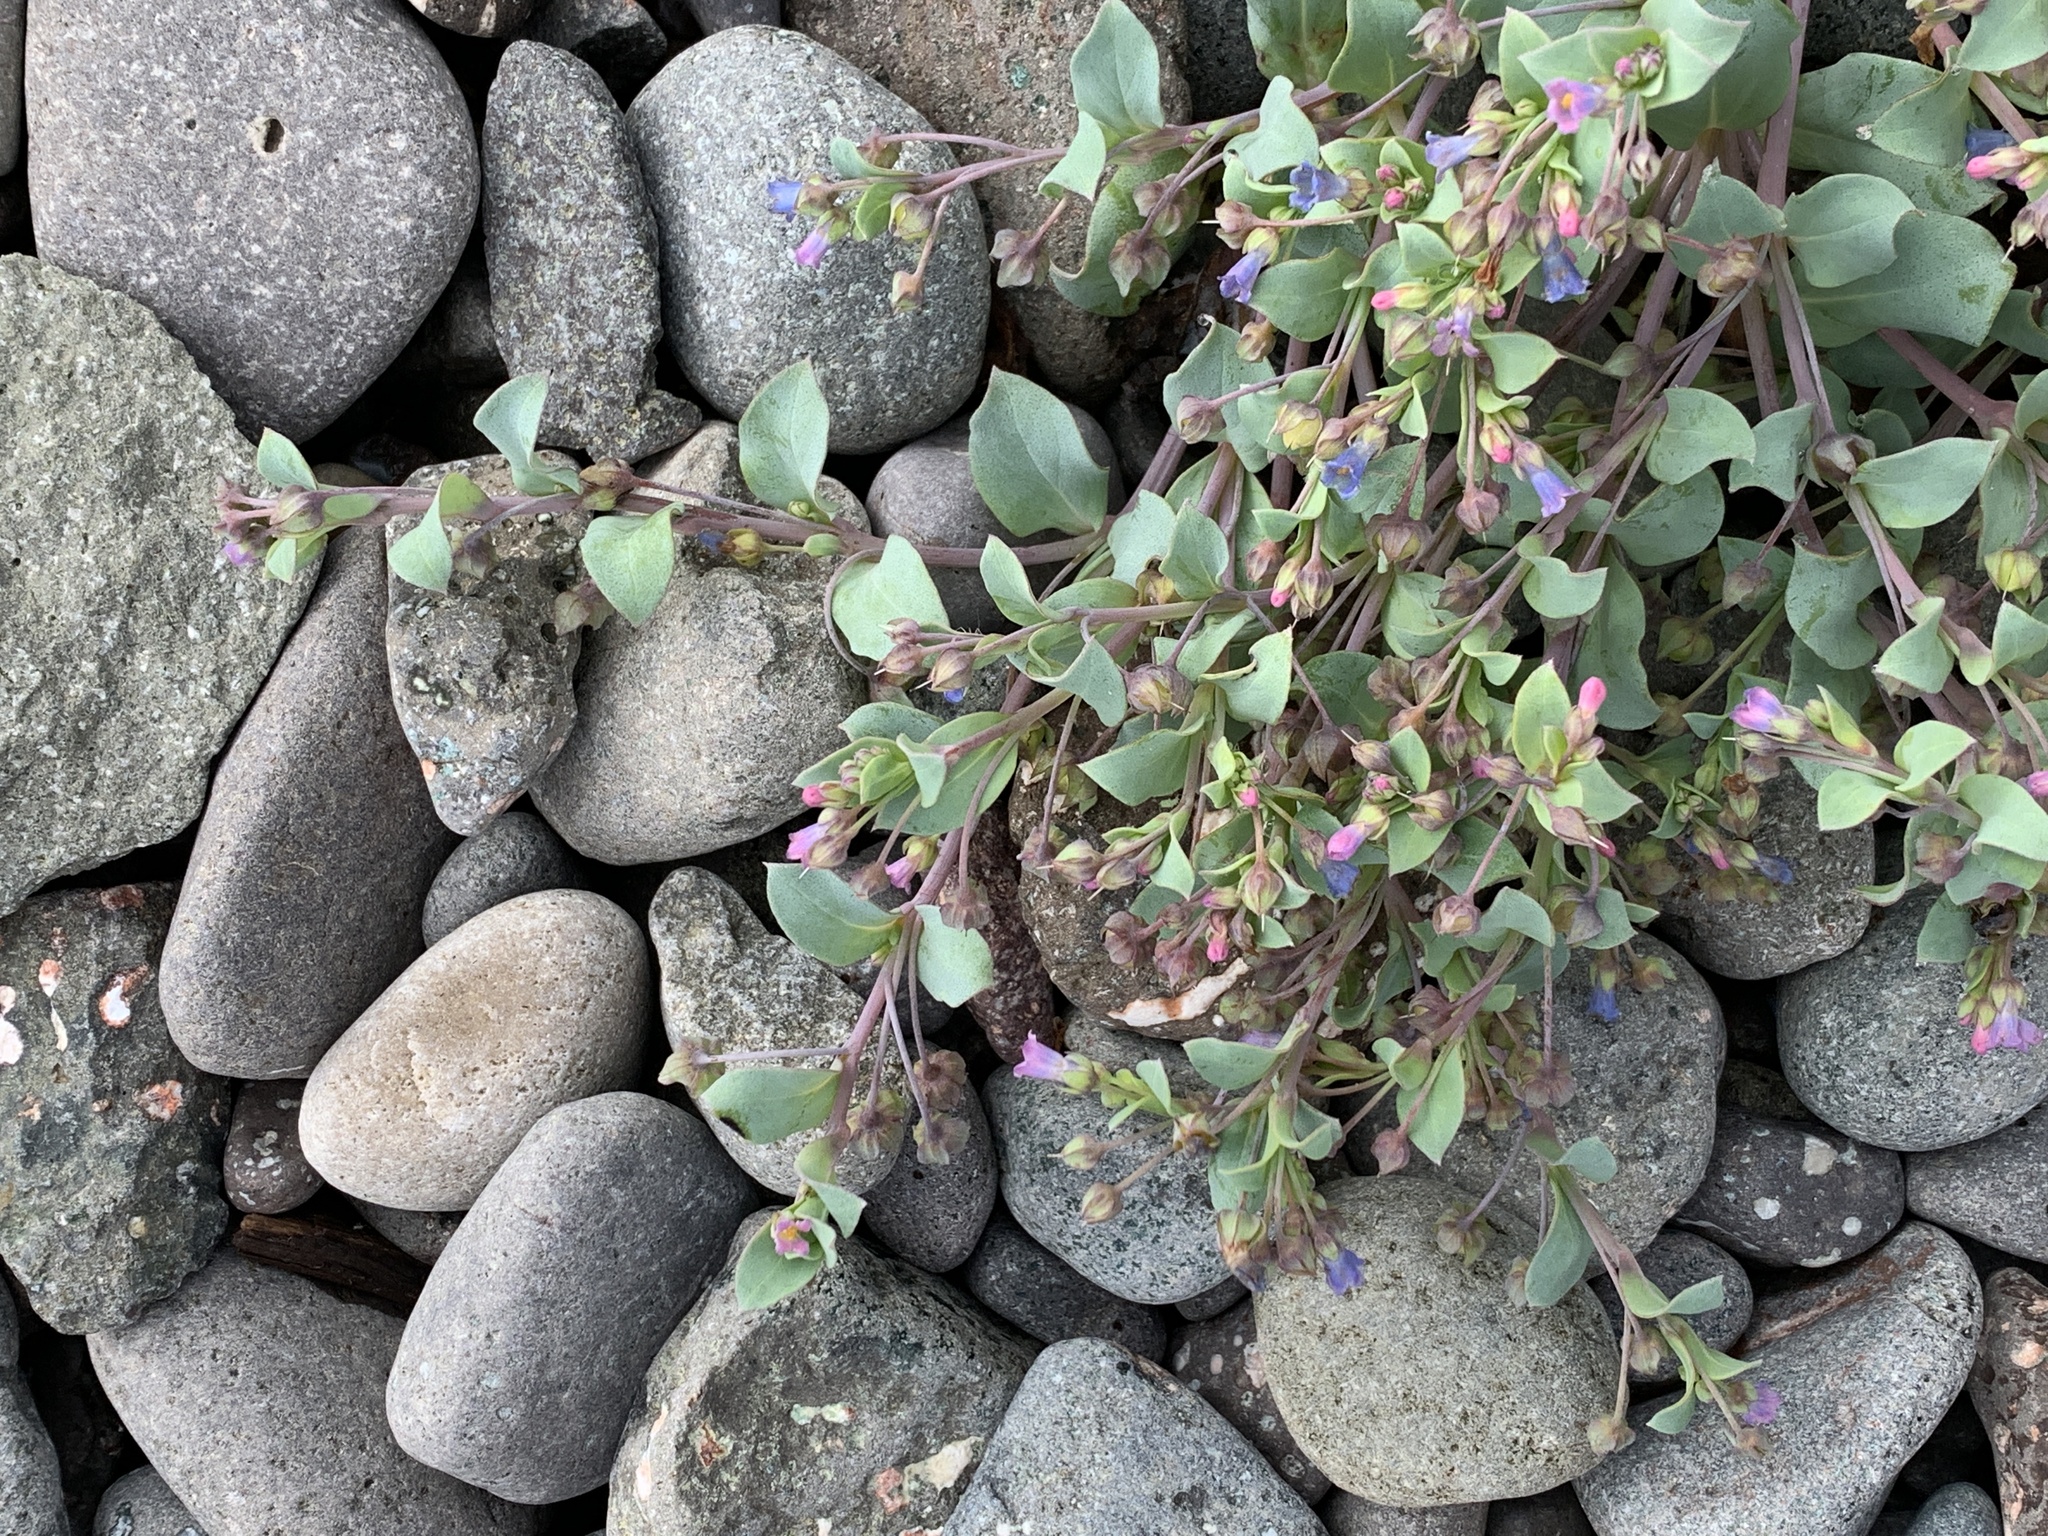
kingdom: Plantae
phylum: Tracheophyta
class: Magnoliopsida
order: Boraginales
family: Boraginaceae
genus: Mertensia
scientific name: Mertensia maritima
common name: Oysterplant
